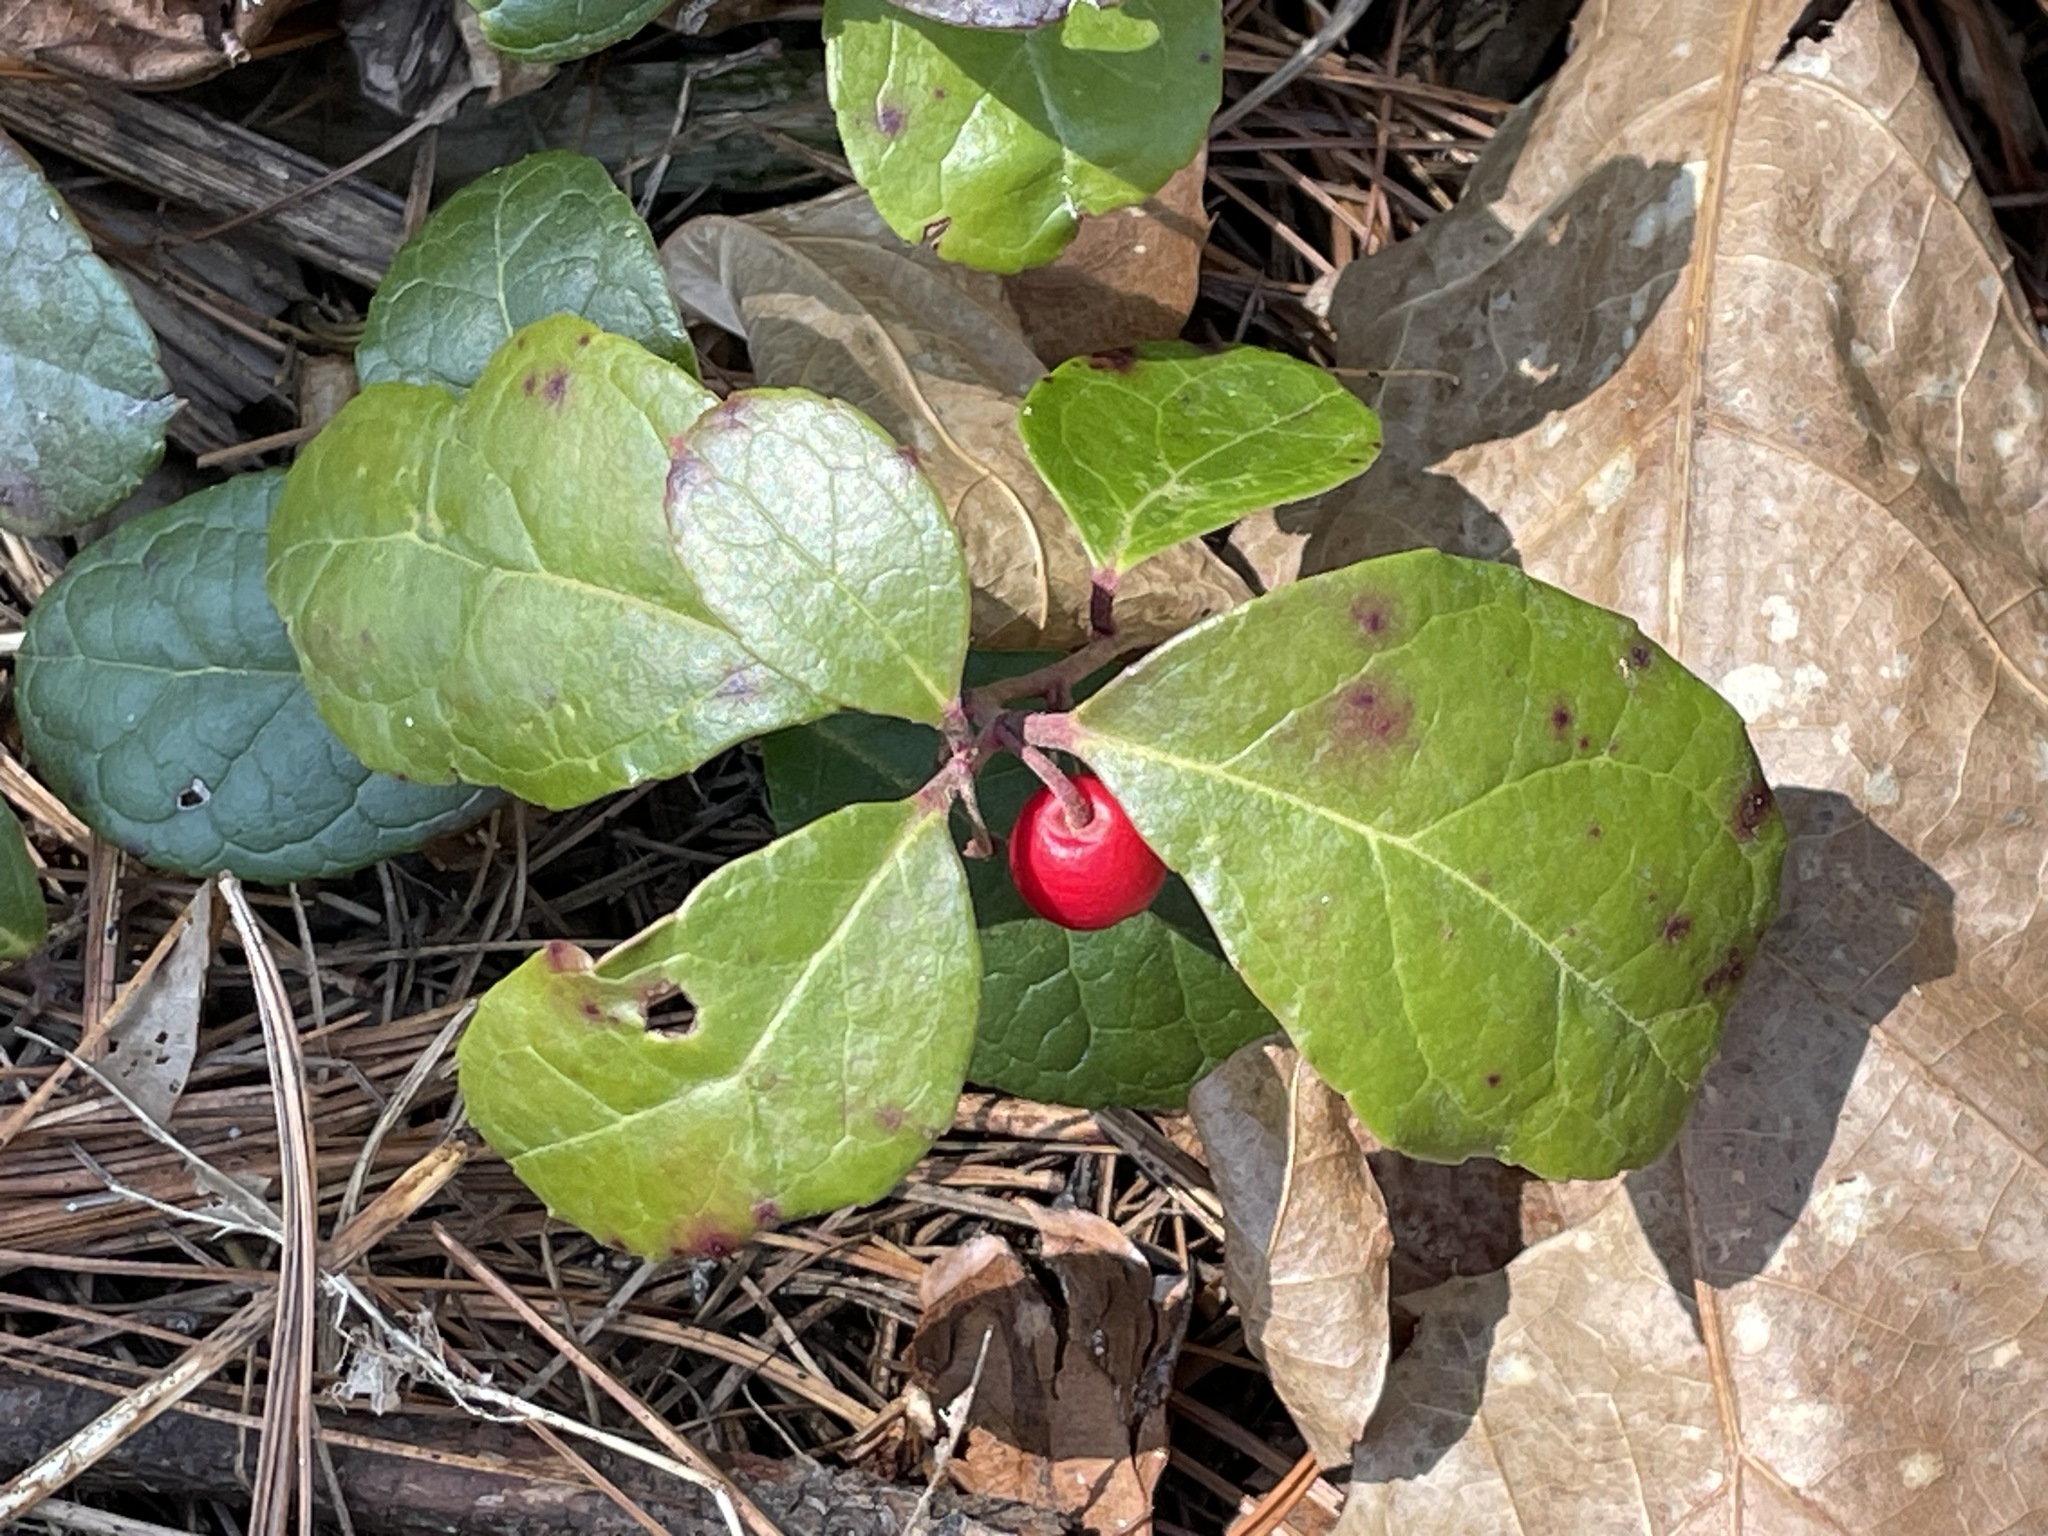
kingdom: Plantae
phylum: Tracheophyta
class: Magnoliopsida
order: Ericales
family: Ericaceae
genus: Gaultheria
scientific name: Gaultheria procumbens
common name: Checkerberry
